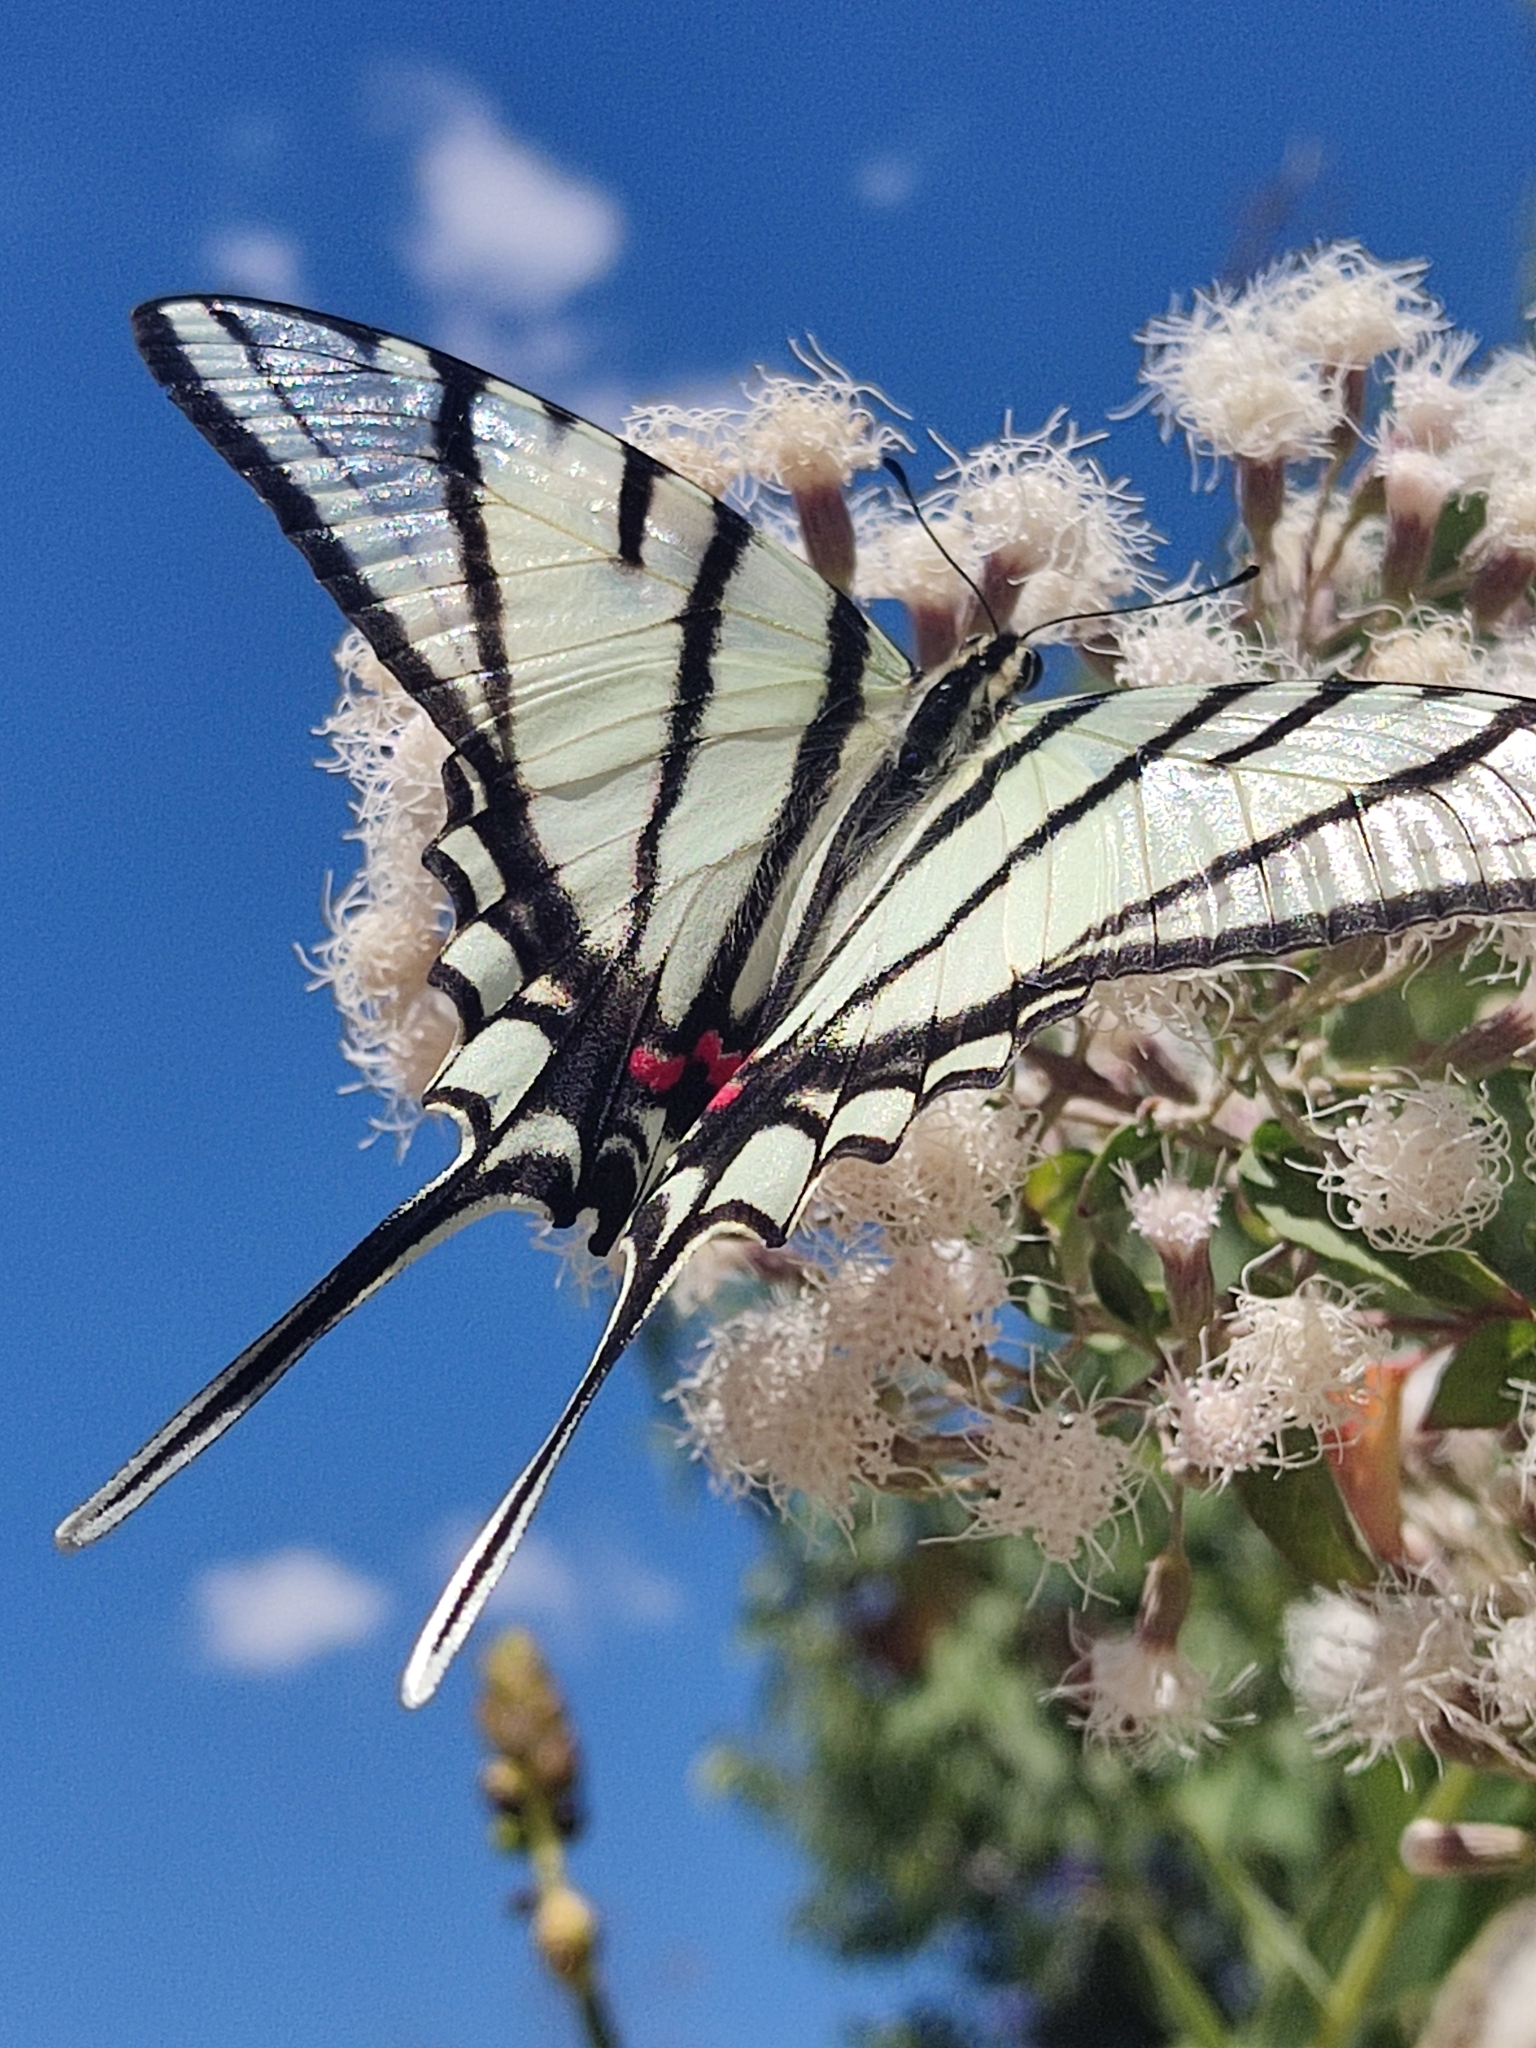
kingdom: Animalia
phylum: Arthropoda
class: Insecta
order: Lepidoptera
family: Papilionidae
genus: Protographium
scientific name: Protographium epidaus
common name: Mexican kite swallowtail
